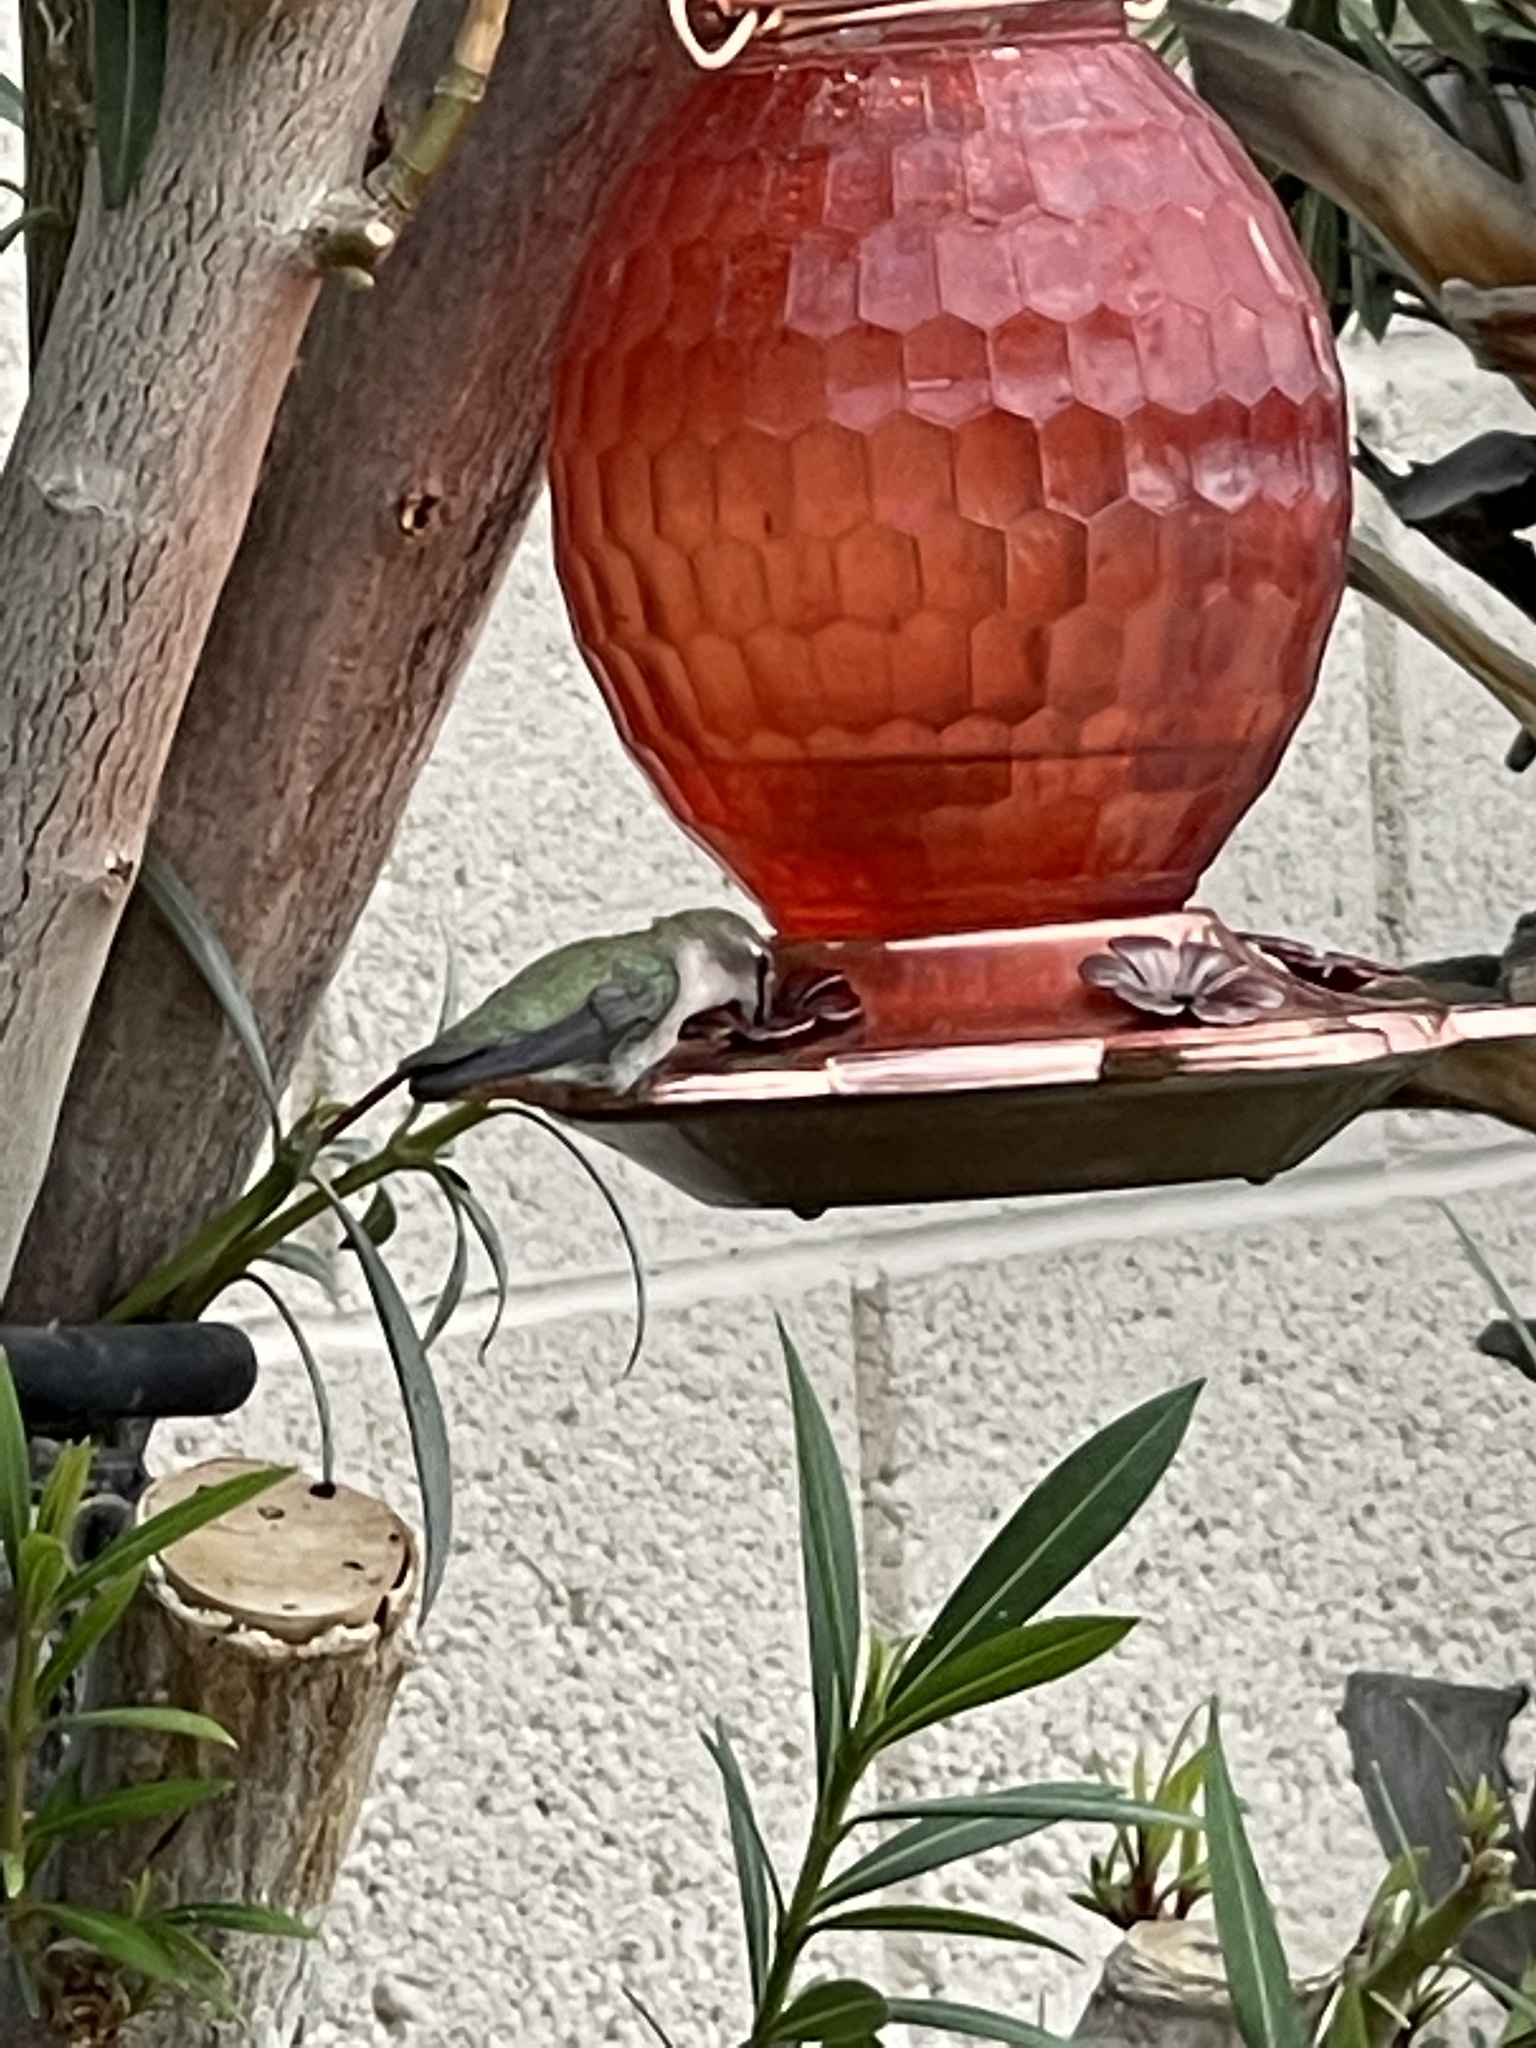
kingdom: Animalia
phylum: Chordata
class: Aves
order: Apodiformes
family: Trochilidae
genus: Calypte
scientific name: Calypte costae
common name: Costa's hummingbird
